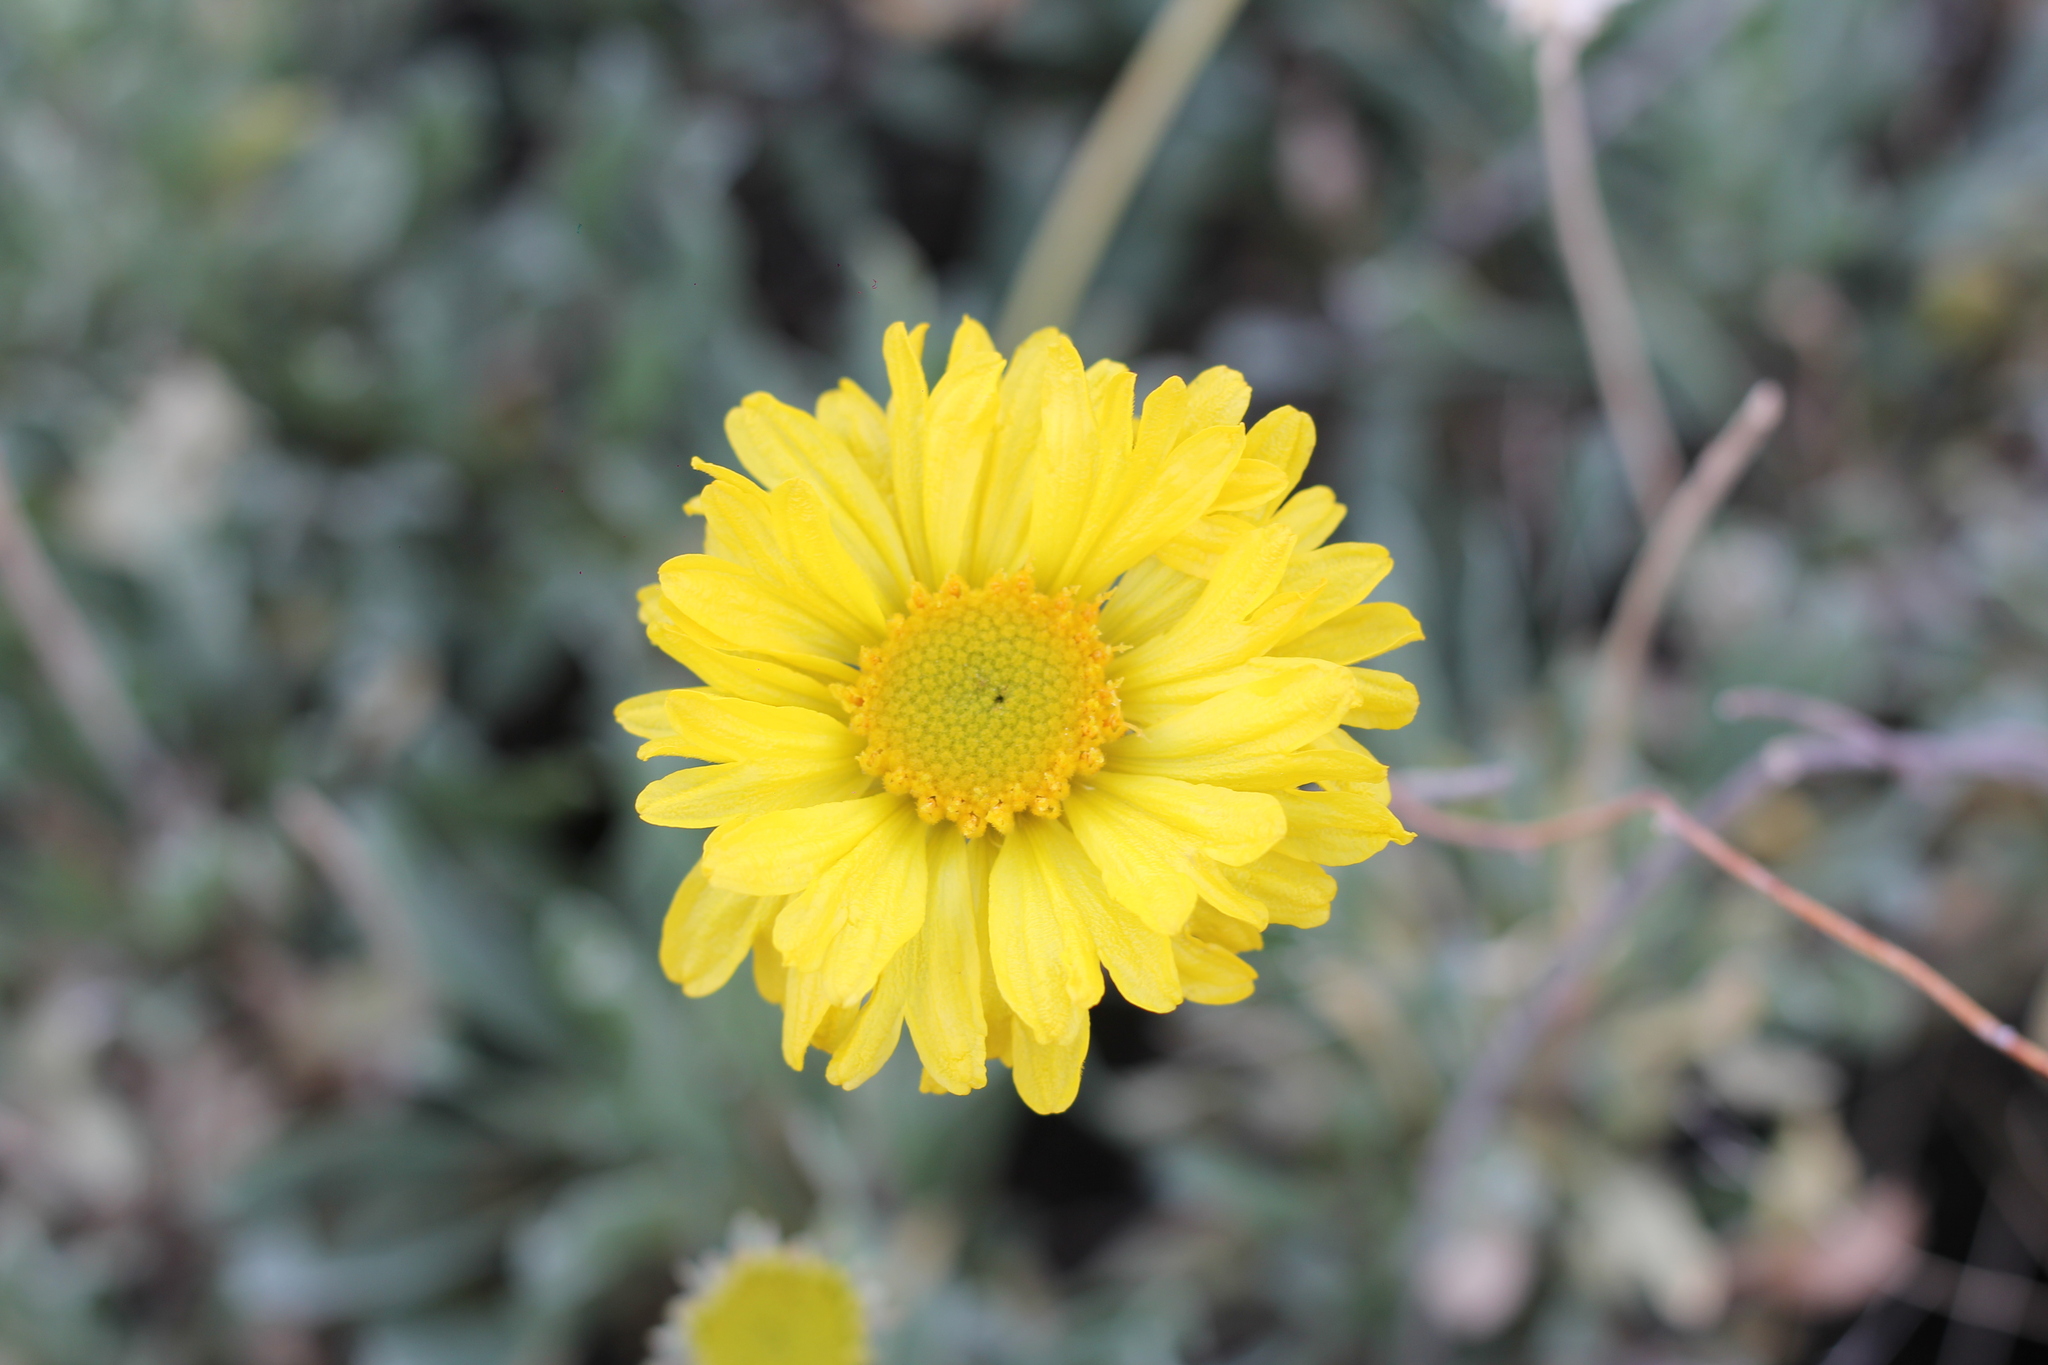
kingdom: Plantae
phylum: Tracheophyta
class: Magnoliopsida
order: Asterales
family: Asteraceae
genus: Gaillardia
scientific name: Gaillardia cabrerae
